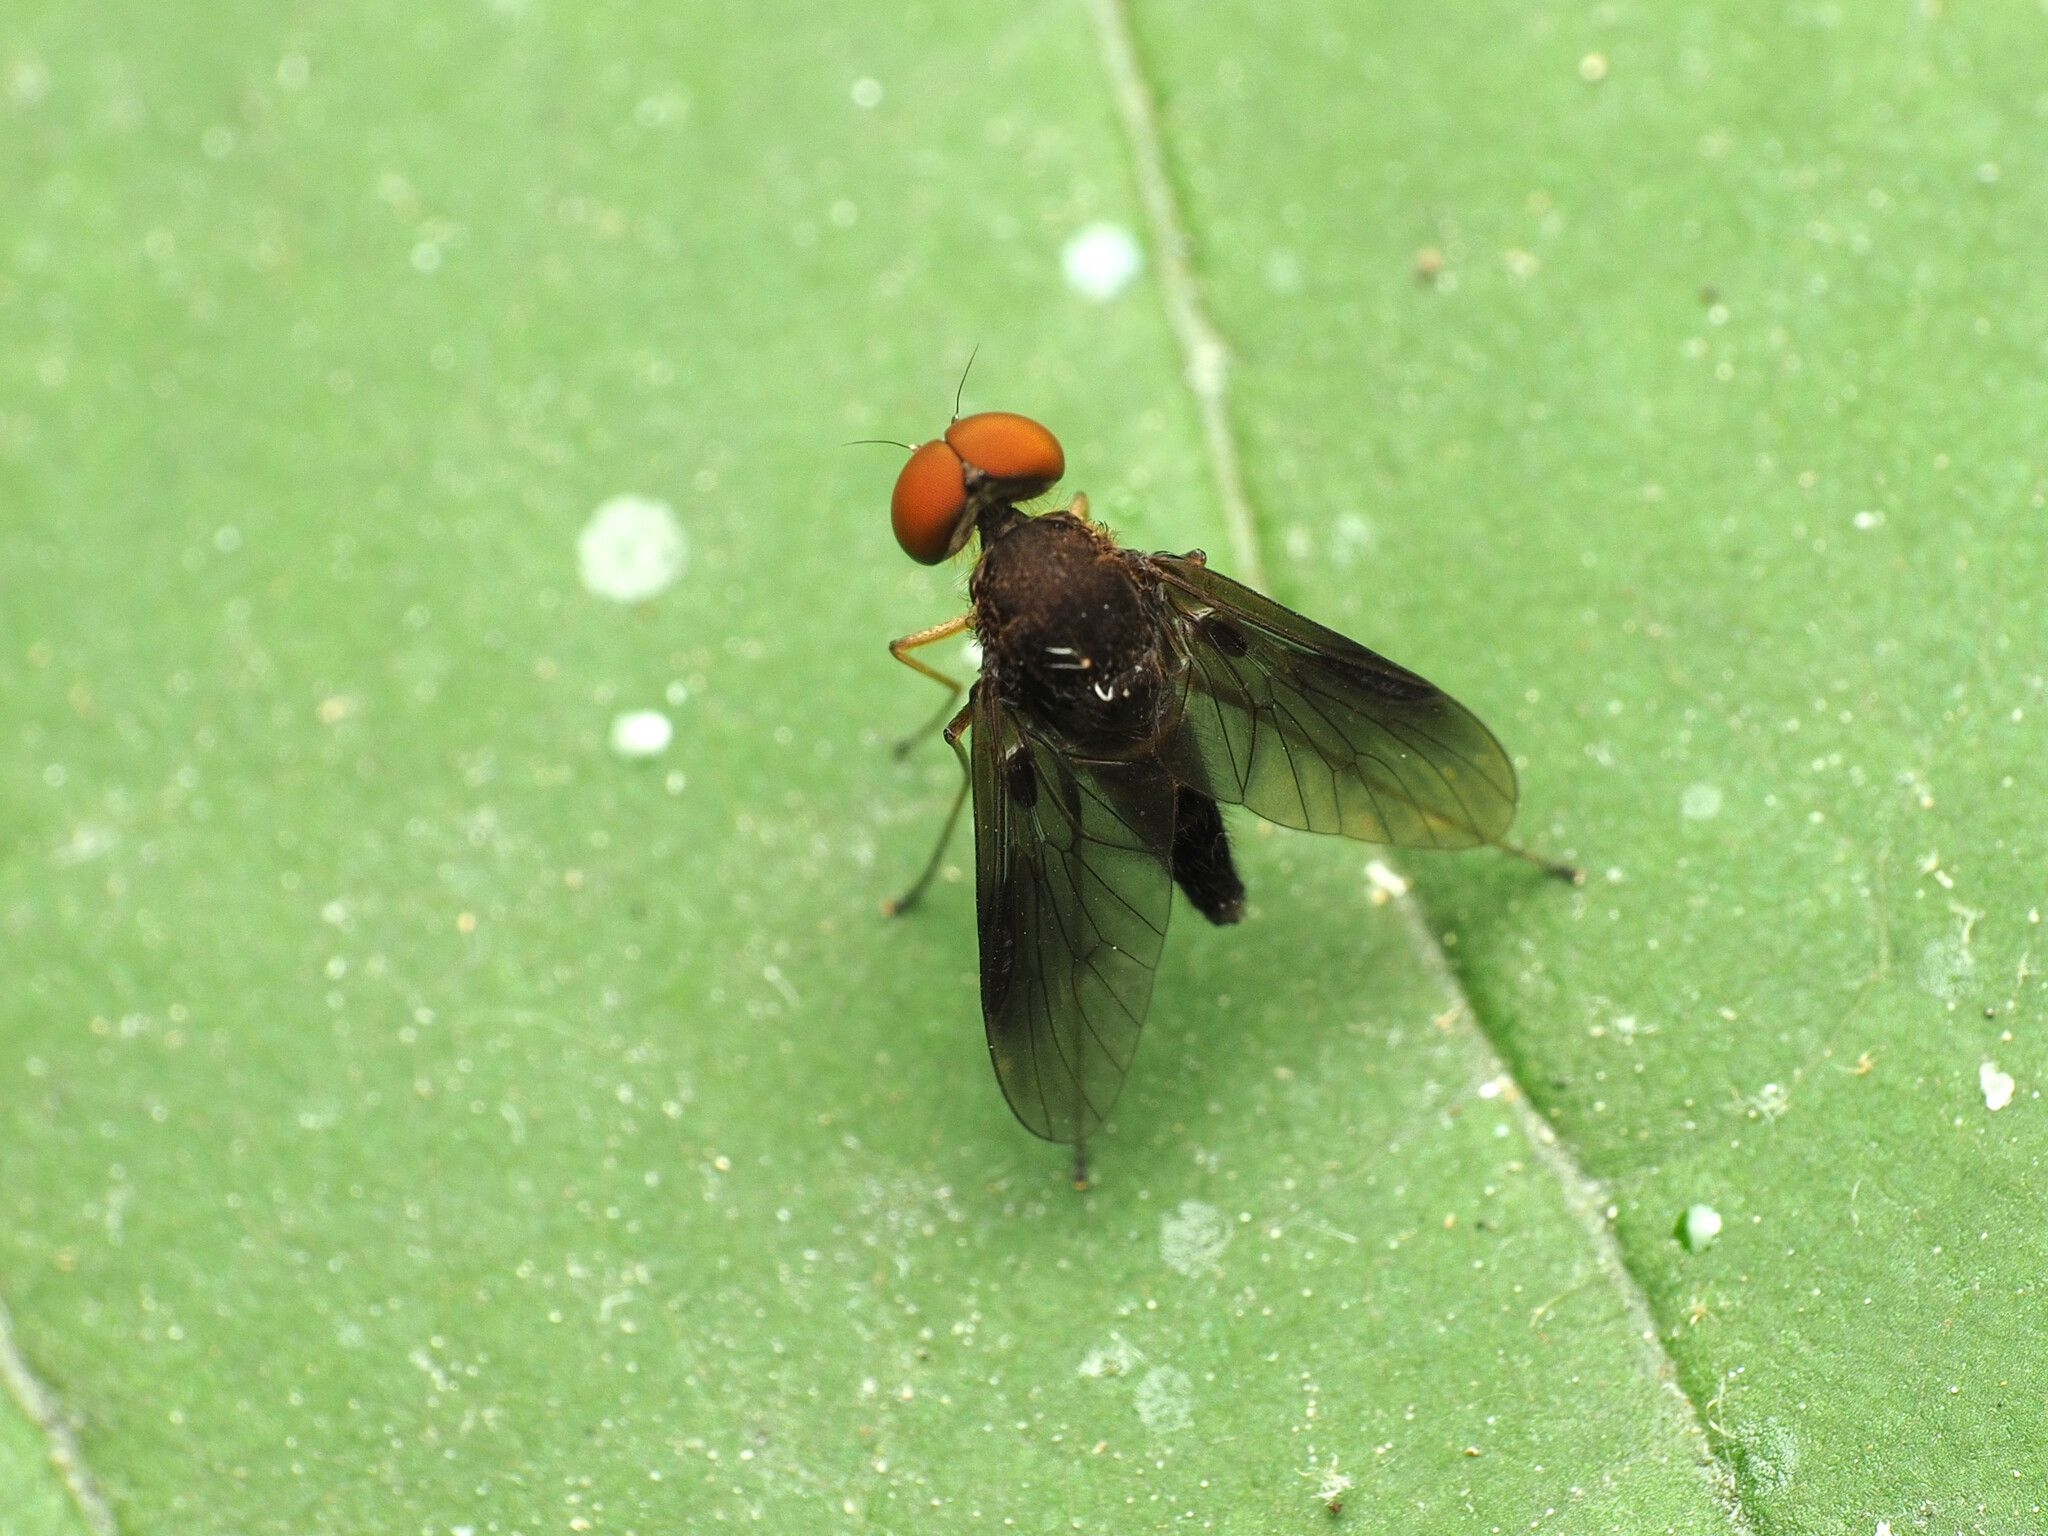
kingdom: Animalia
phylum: Arthropoda
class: Insecta
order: Diptera
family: Rhagionidae
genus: Chrysopilus
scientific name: Chrysopilus quadratus
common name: Quadrate snipe fly
